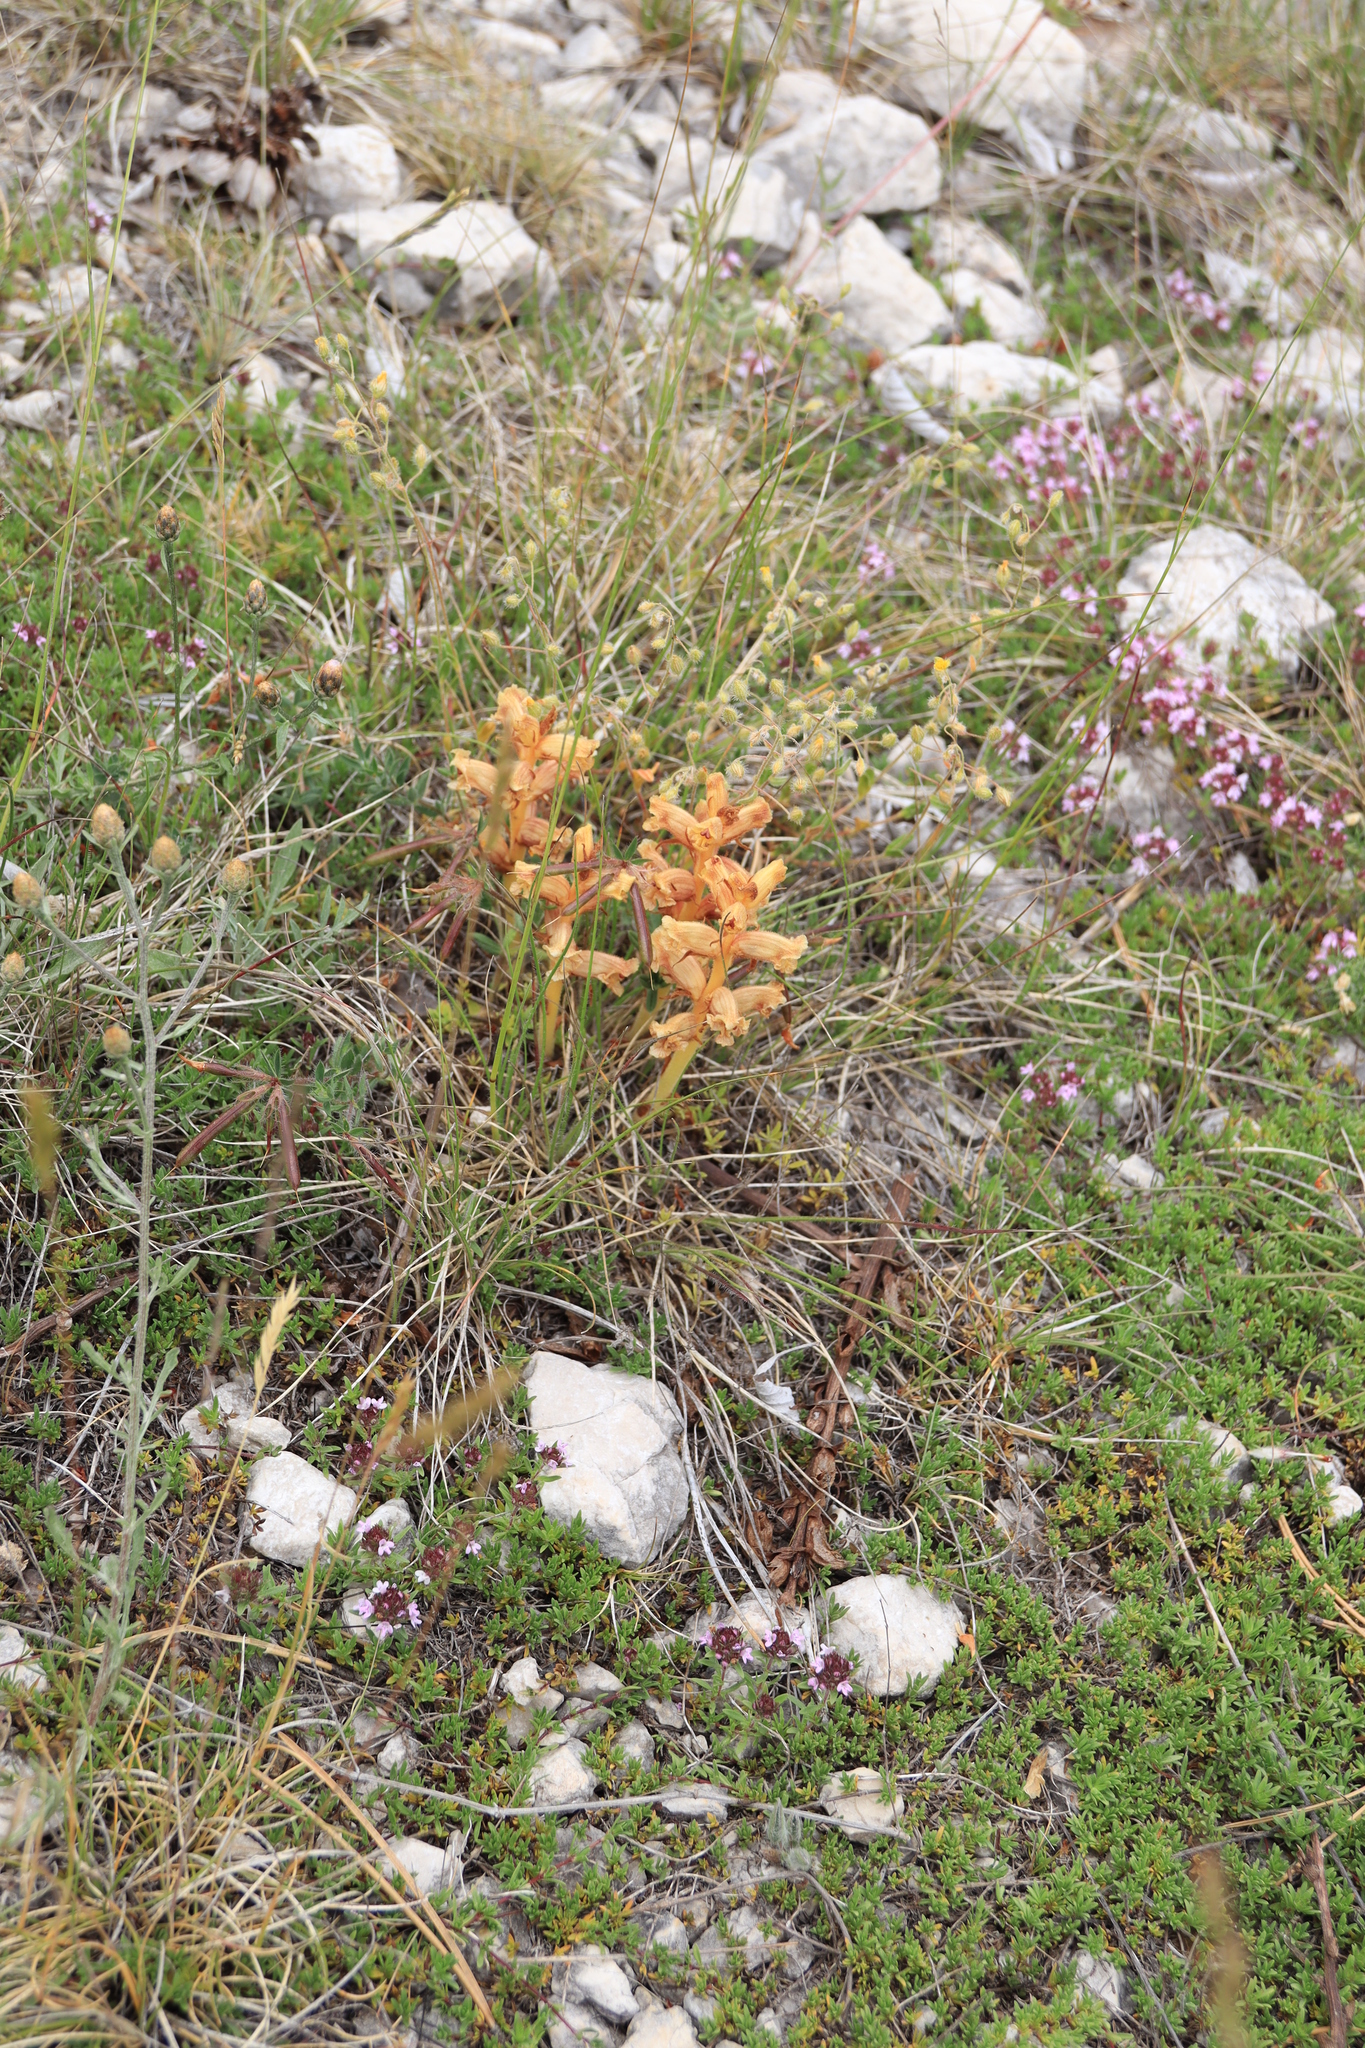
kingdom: Plantae
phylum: Tracheophyta
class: Magnoliopsida
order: Lamiales
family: Orobanchaceae
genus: Orobanche
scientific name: Orobanche alba
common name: Thyme broomrape
